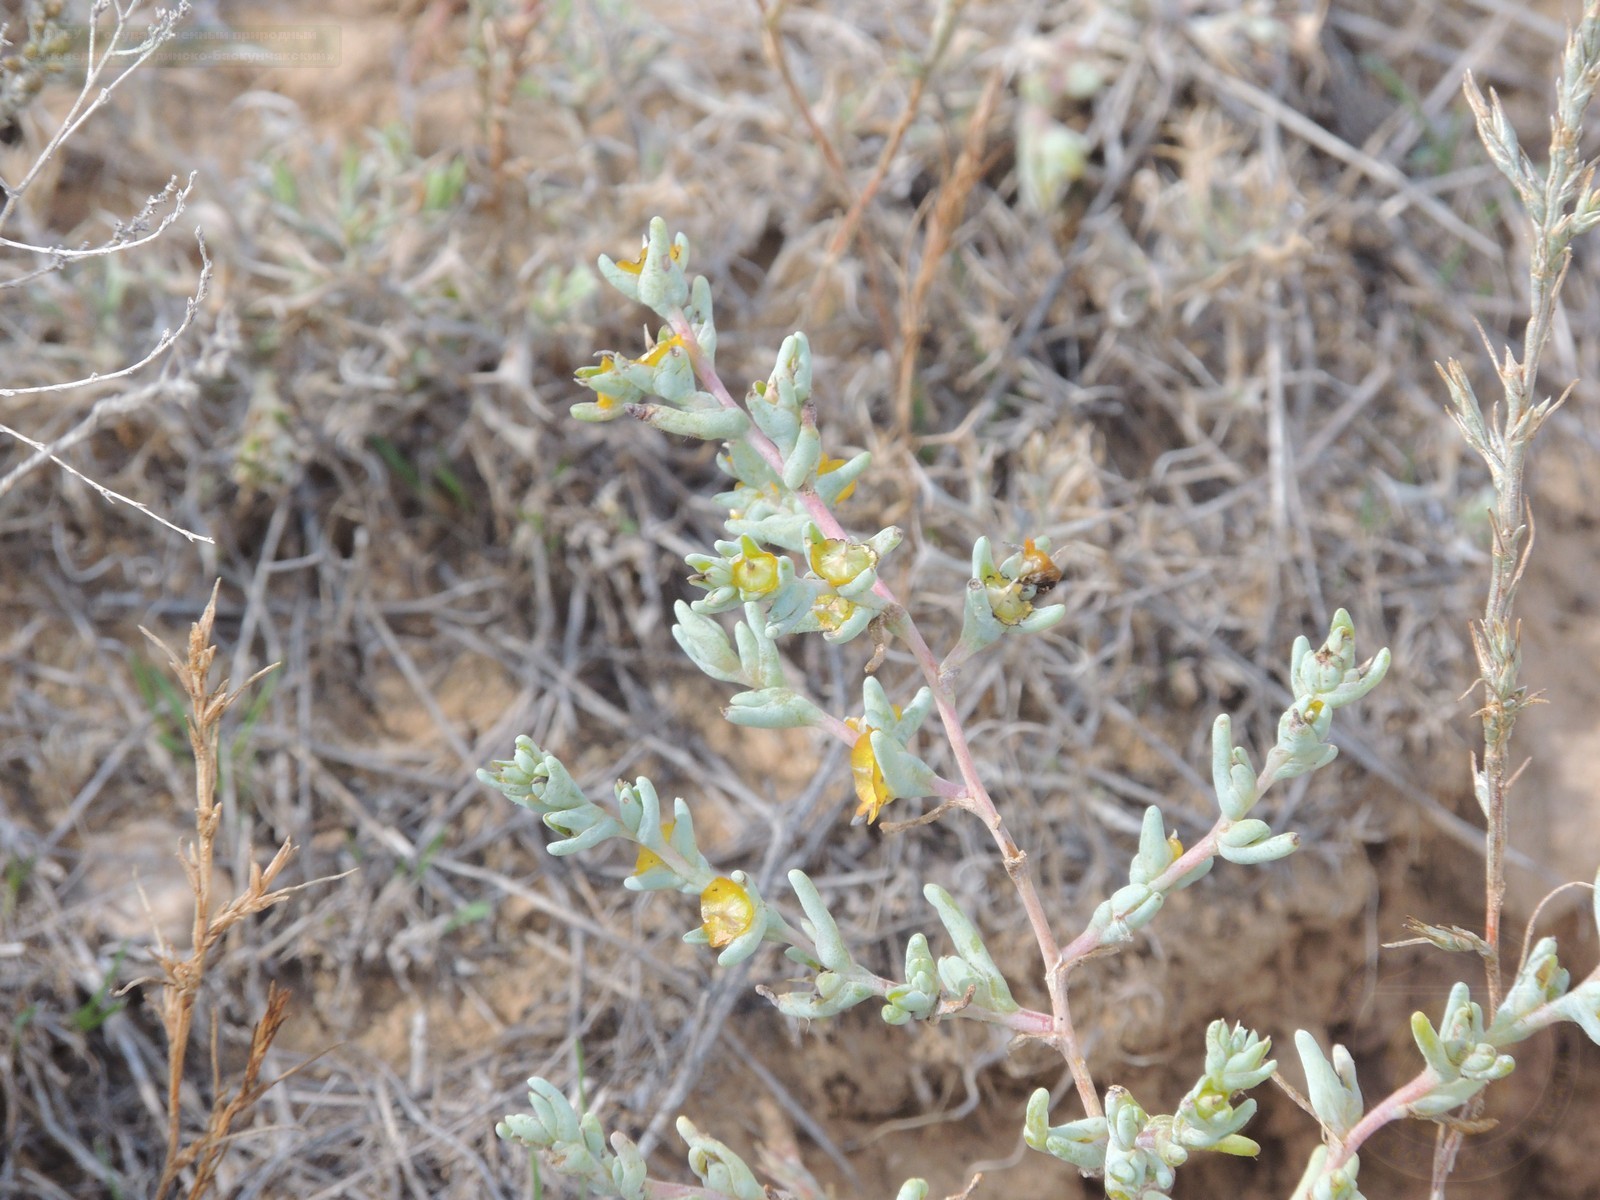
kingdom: Plantae
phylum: Tracheophyta
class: Magnoliopsida
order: Caryophyllales
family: Amaranthaceae
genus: Climacoptera
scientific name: Climacoptera crassa
